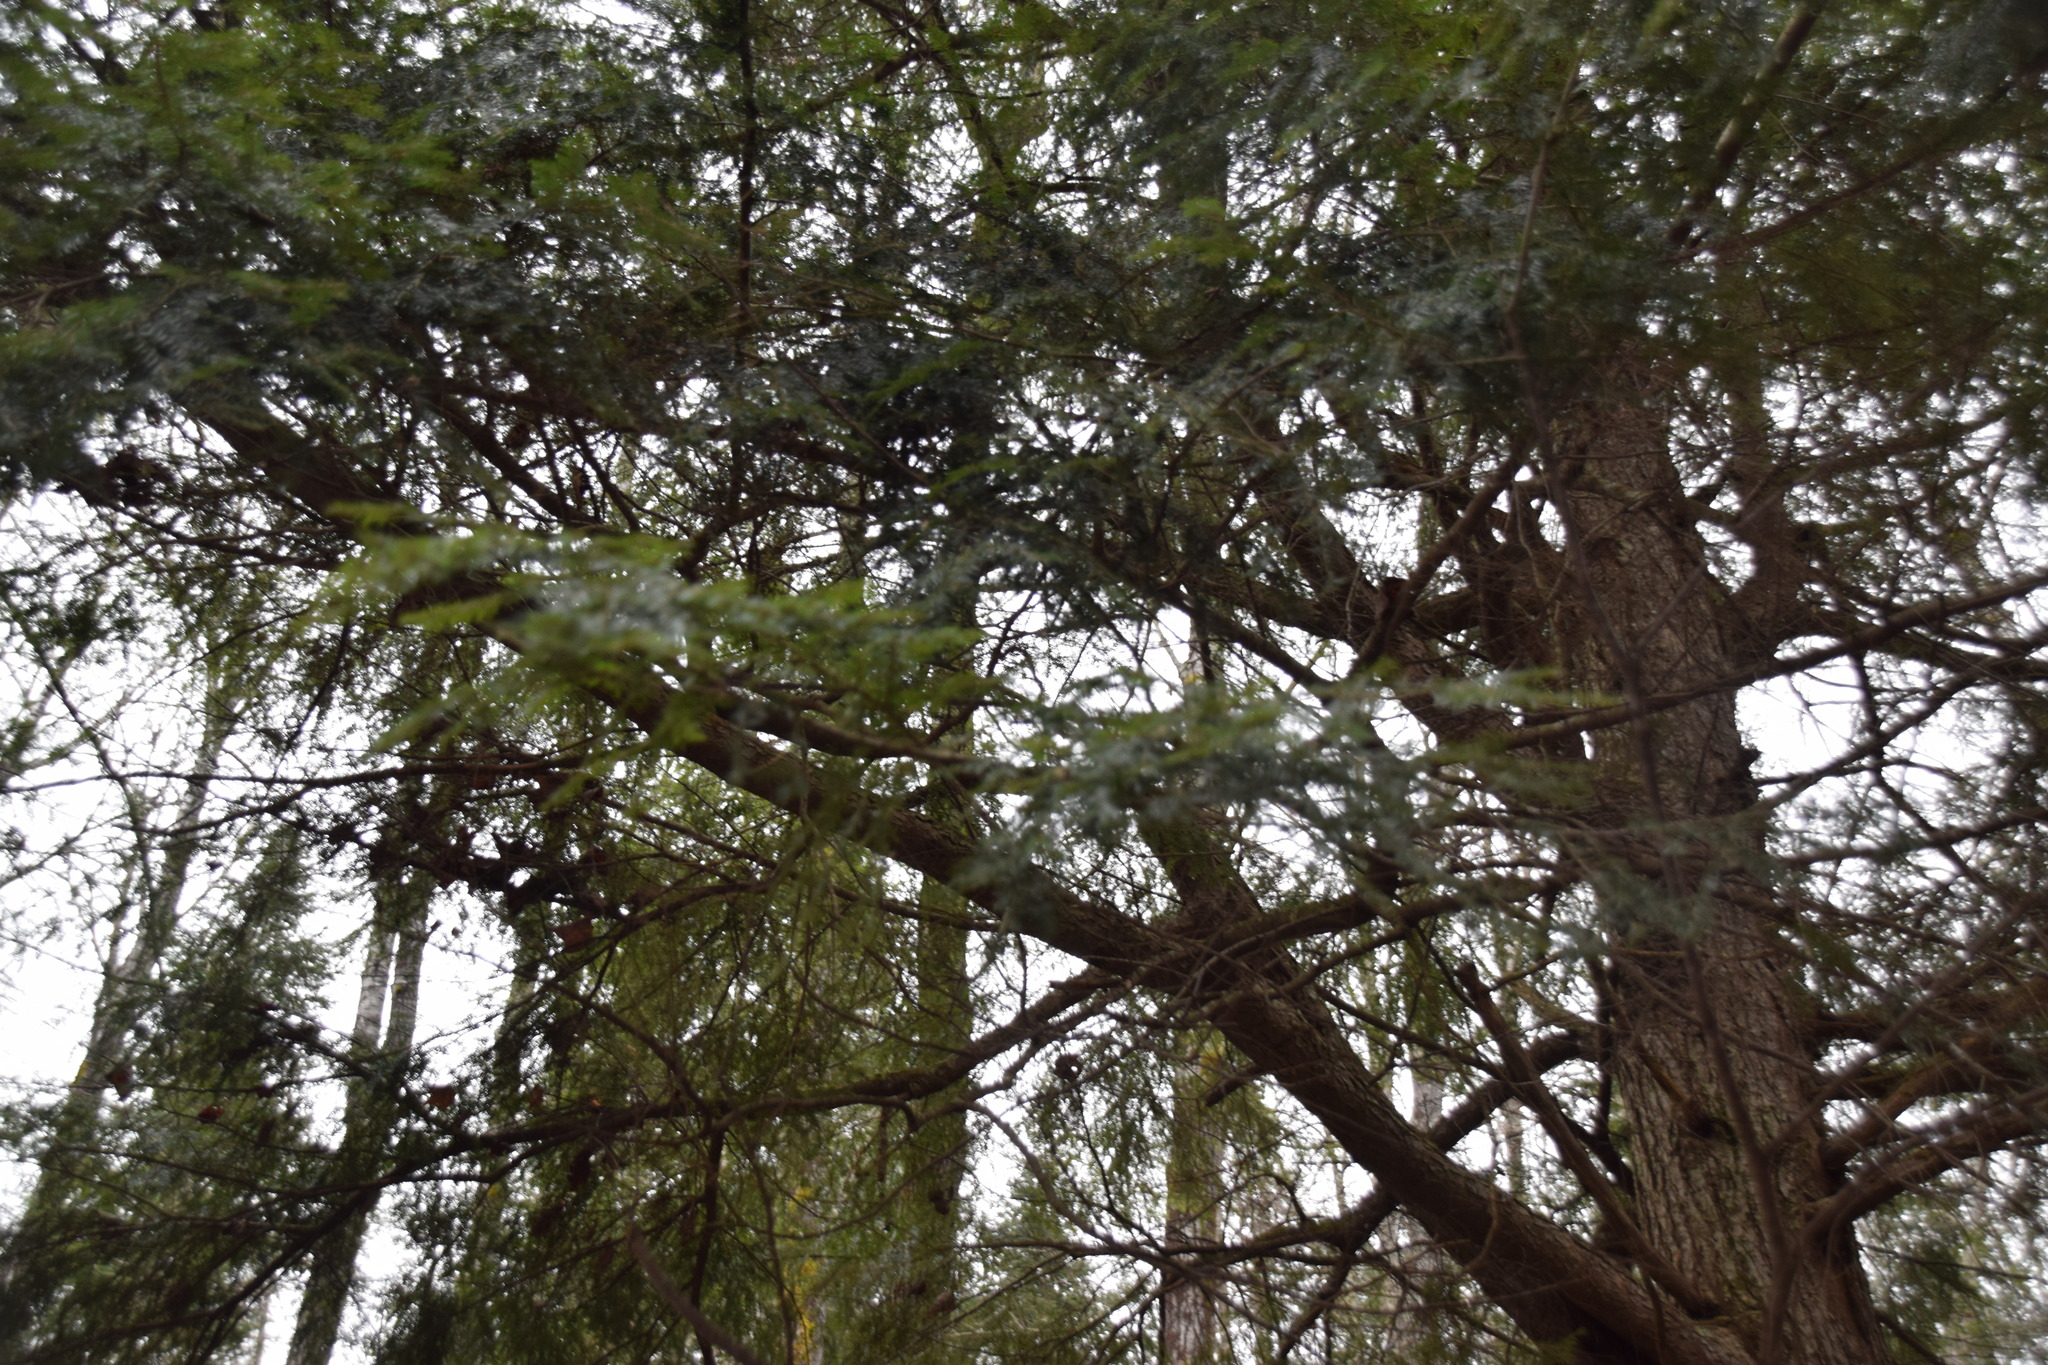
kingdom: Plantae
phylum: Tracheophyta
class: Pinopsida
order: Pinales
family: Pinaceae
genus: Tsuga
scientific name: Tsuga canadensis
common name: Eastern hemlock
